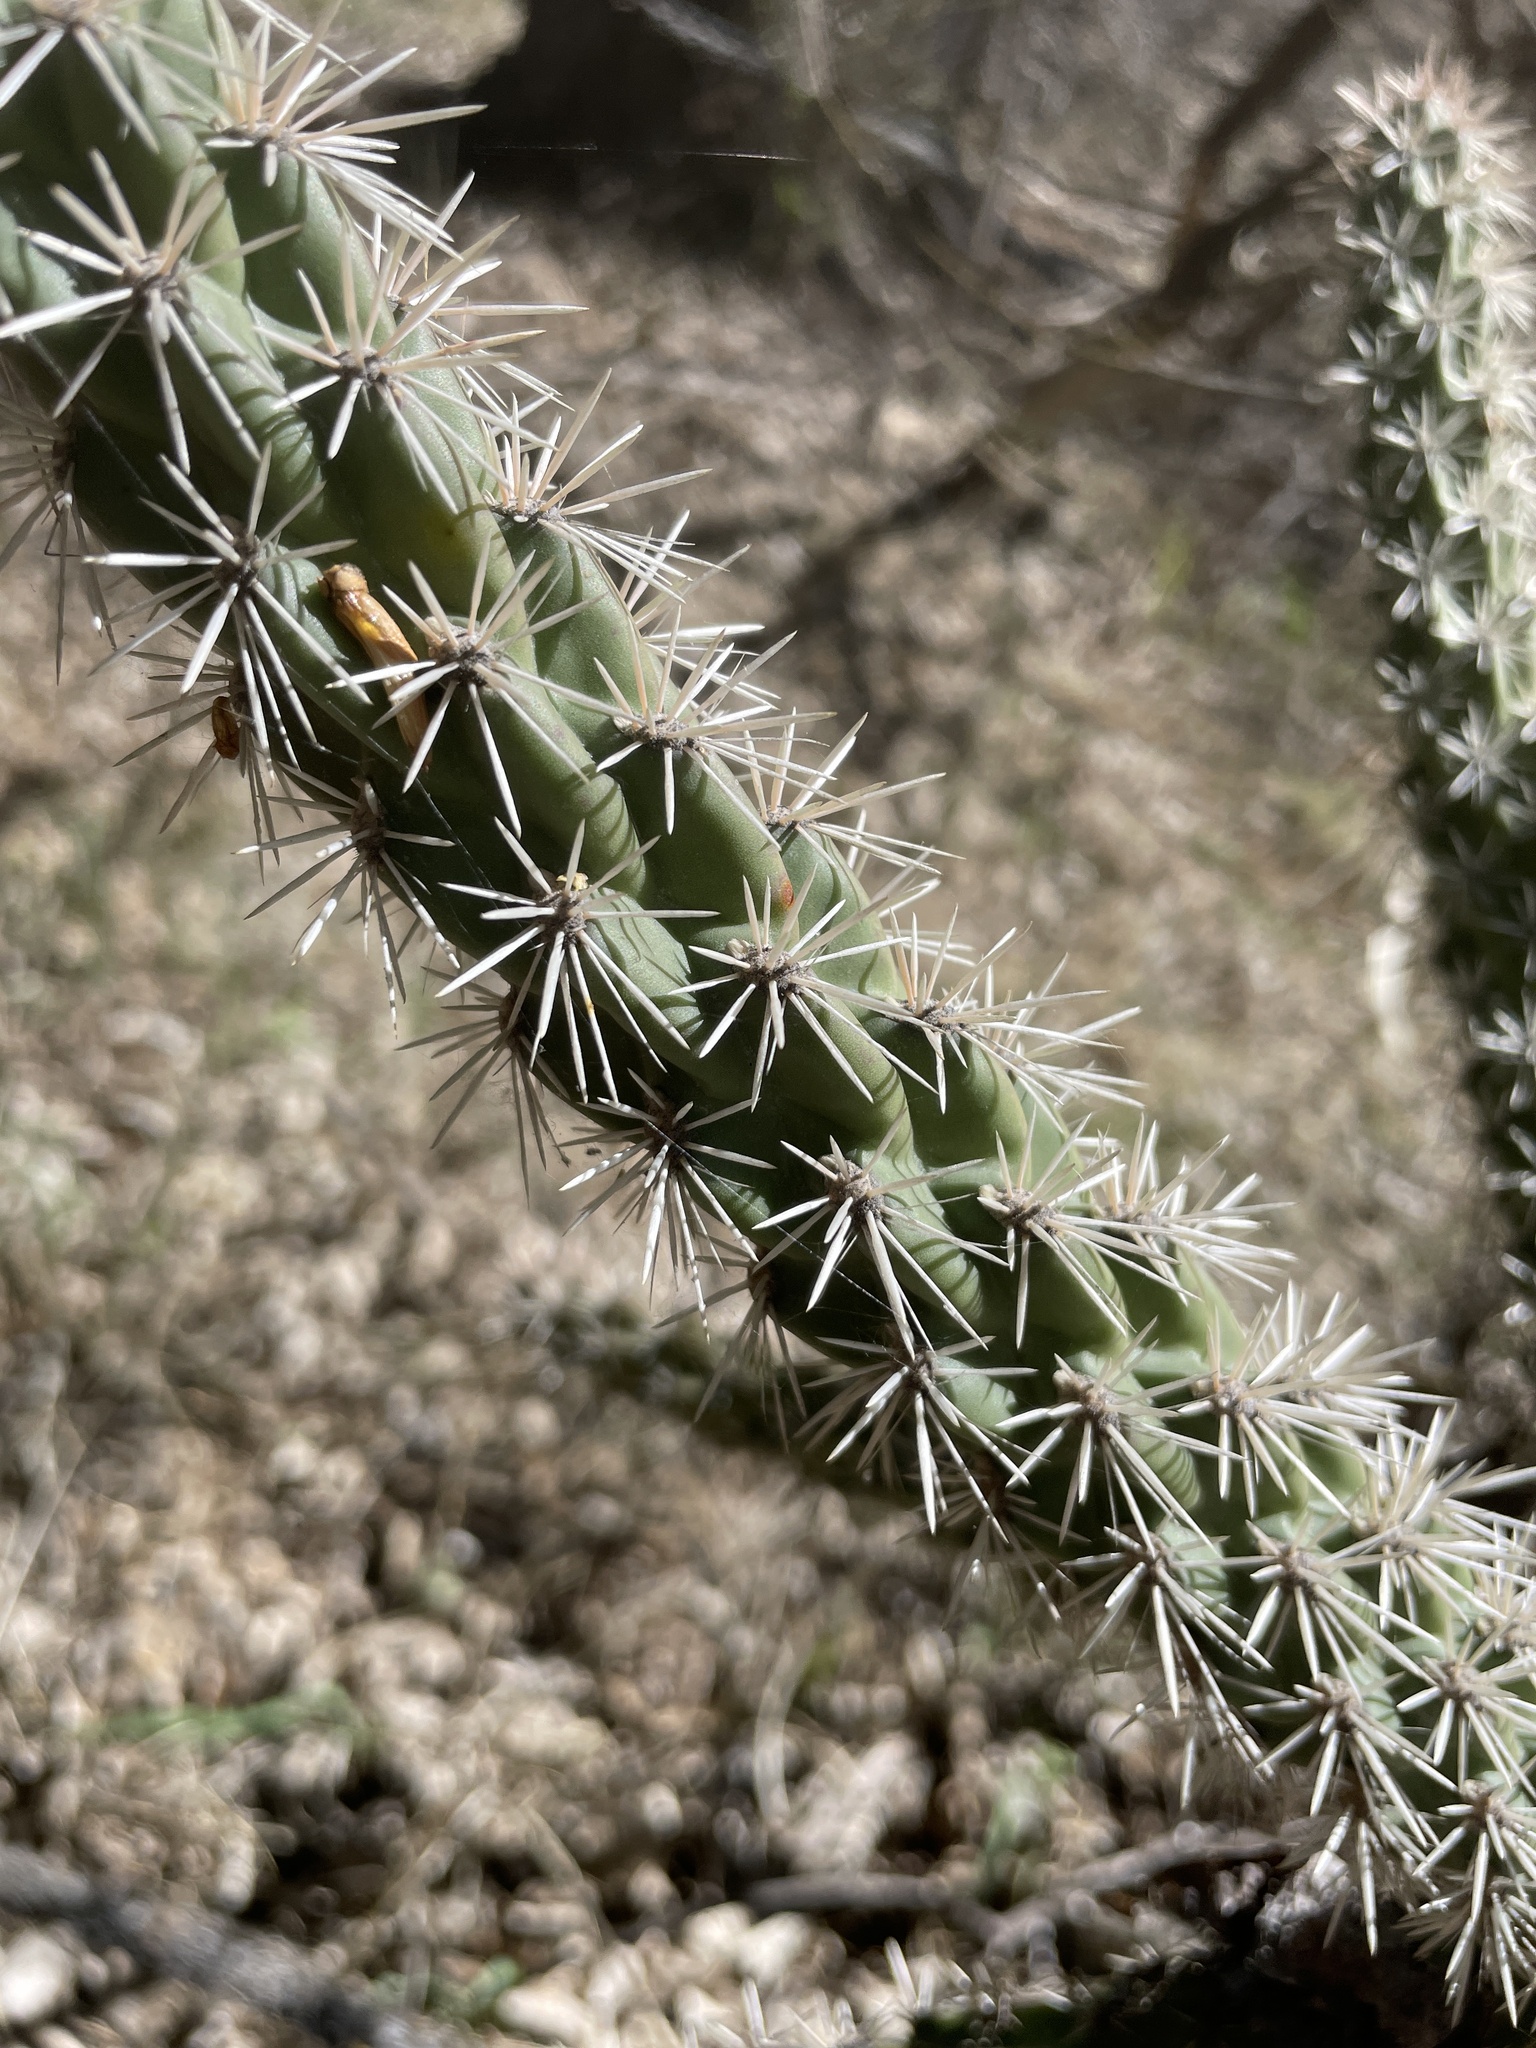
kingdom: Plantae
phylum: Tracheophyta
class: Magnoliopsida
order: Caryophyllales
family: Cactaceae
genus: Cylindropuntia
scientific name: Cylindropuntia imbricata
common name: Candelabrum cactus
